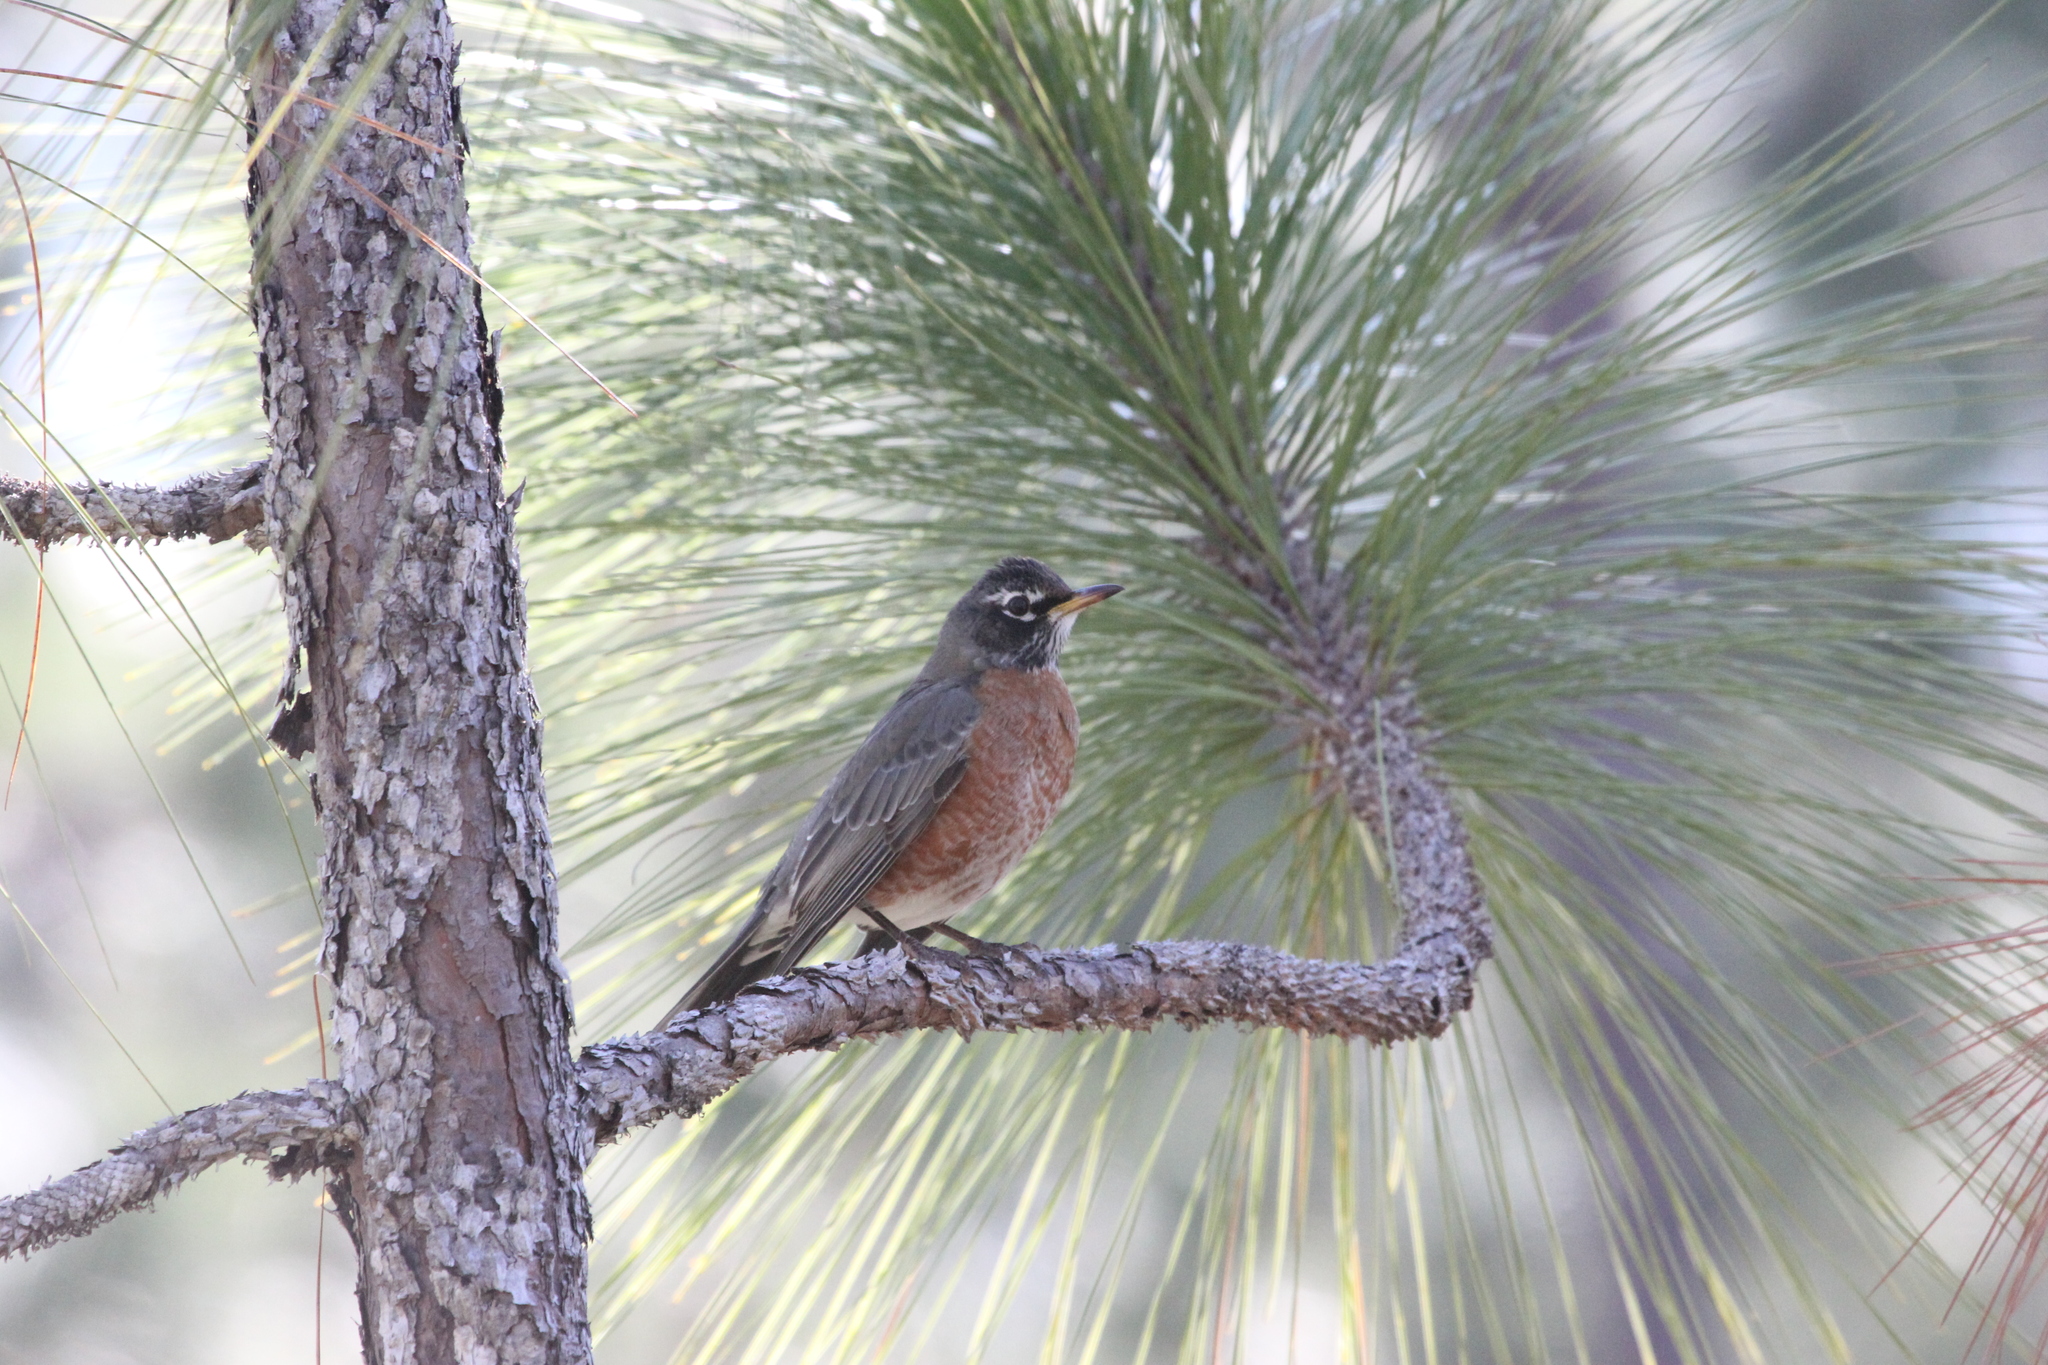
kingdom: Animalia
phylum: Chordata
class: Aves
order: Passeriformes
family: Turdidae
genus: Turdus
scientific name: Turdus migratorius
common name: American robin
